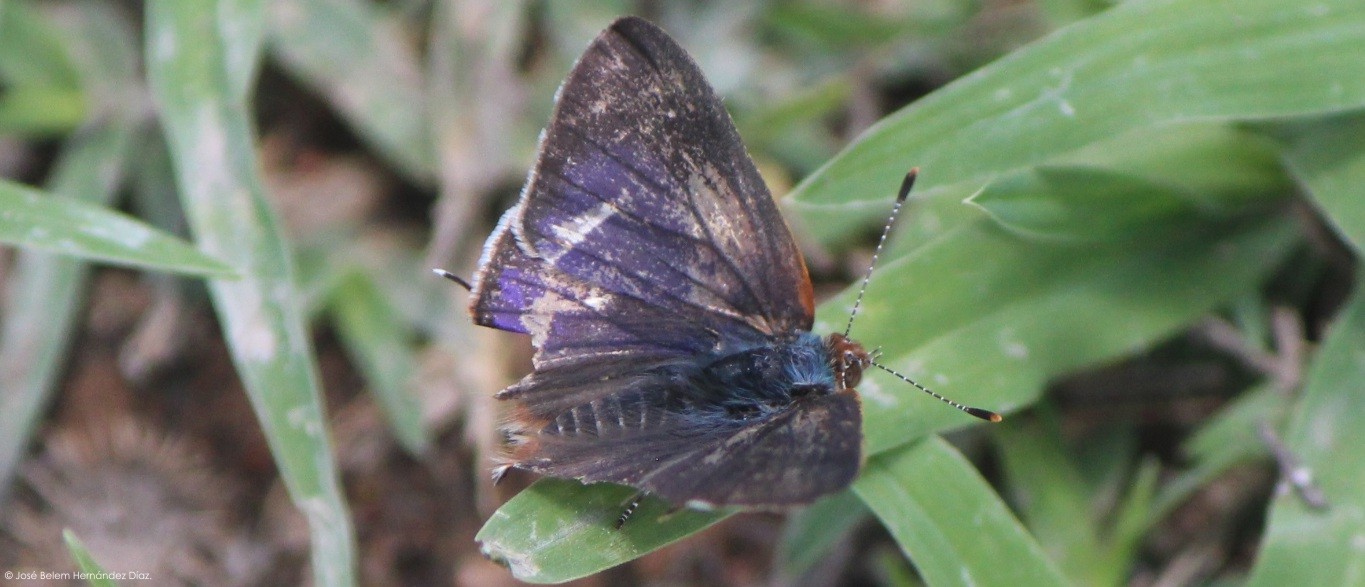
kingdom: Animalia
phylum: Arthropoda
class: Insecta
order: Lepidoptera
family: Lycaenidae
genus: Chlorostrymon
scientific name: Chlorostrymon simaethis
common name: Silver-banded hairstreak
